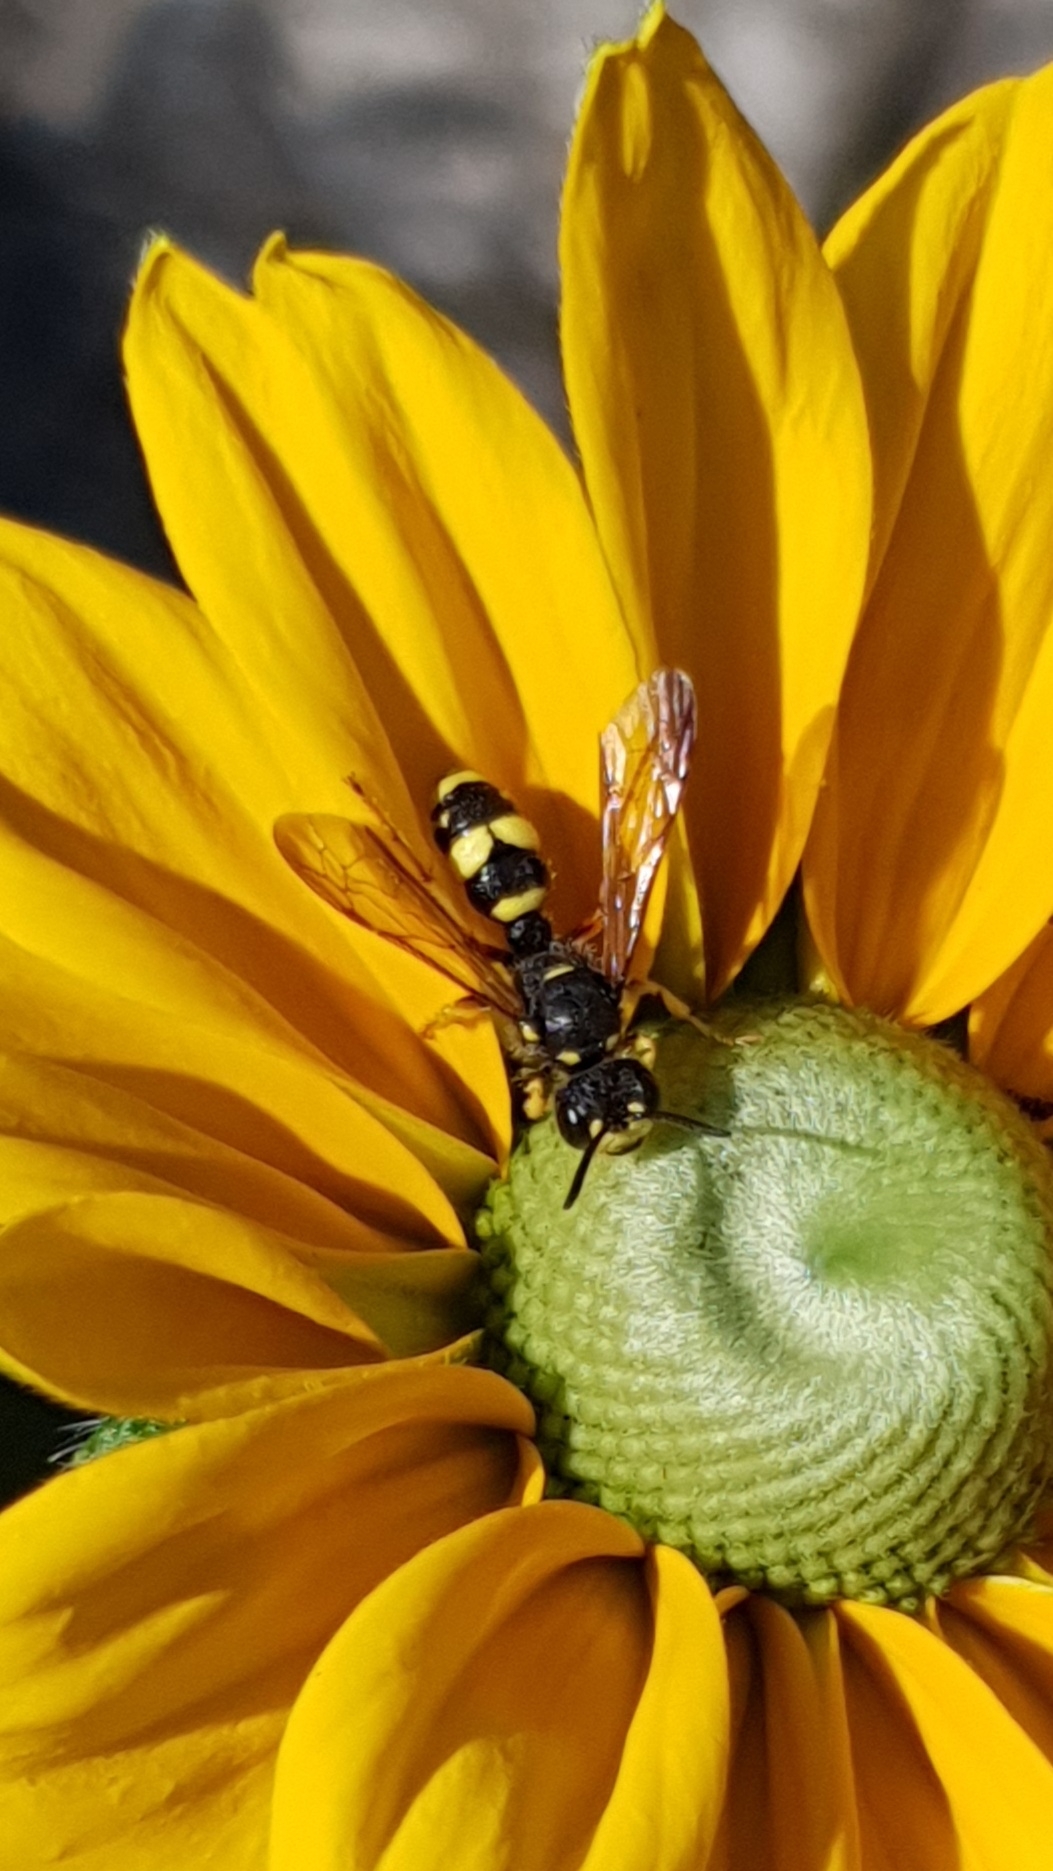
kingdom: Animalia
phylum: Arthropoda
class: Insecta
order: Hymenoptera
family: Crabronidae
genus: Cerceris
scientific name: Cerceris rybyensis
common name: Ornate tailed digger wasp
